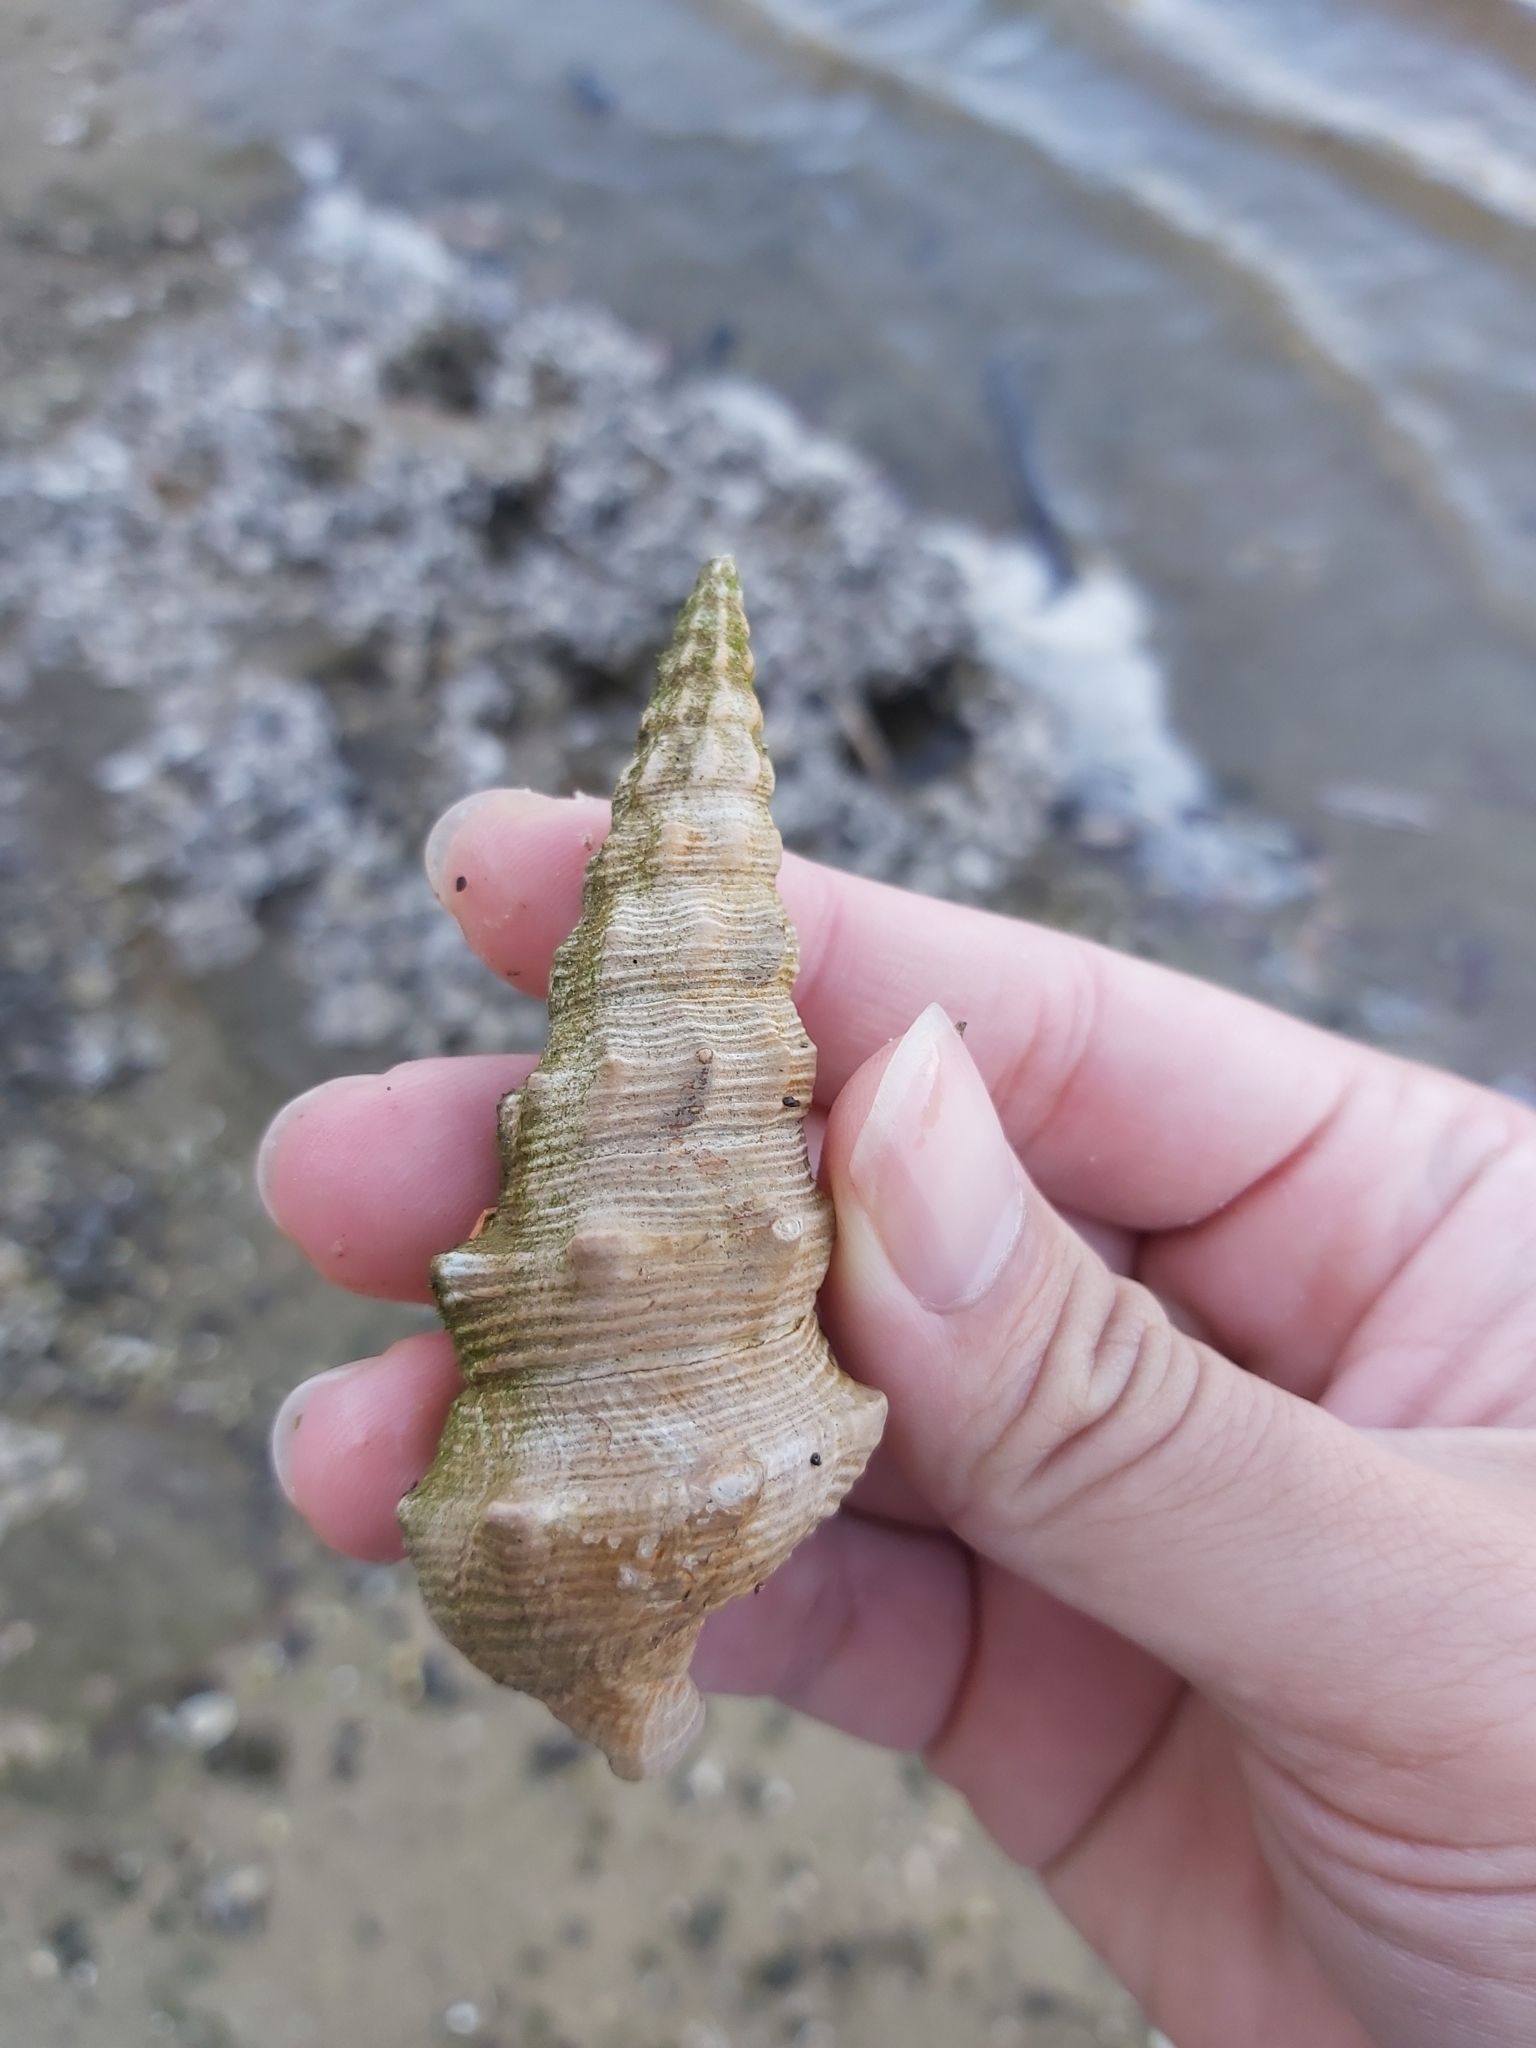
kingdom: Animalia
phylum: Mollusca
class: Gastropoda
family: Batillariidae
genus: Pyrazus
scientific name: Pyrazus ebeninus
